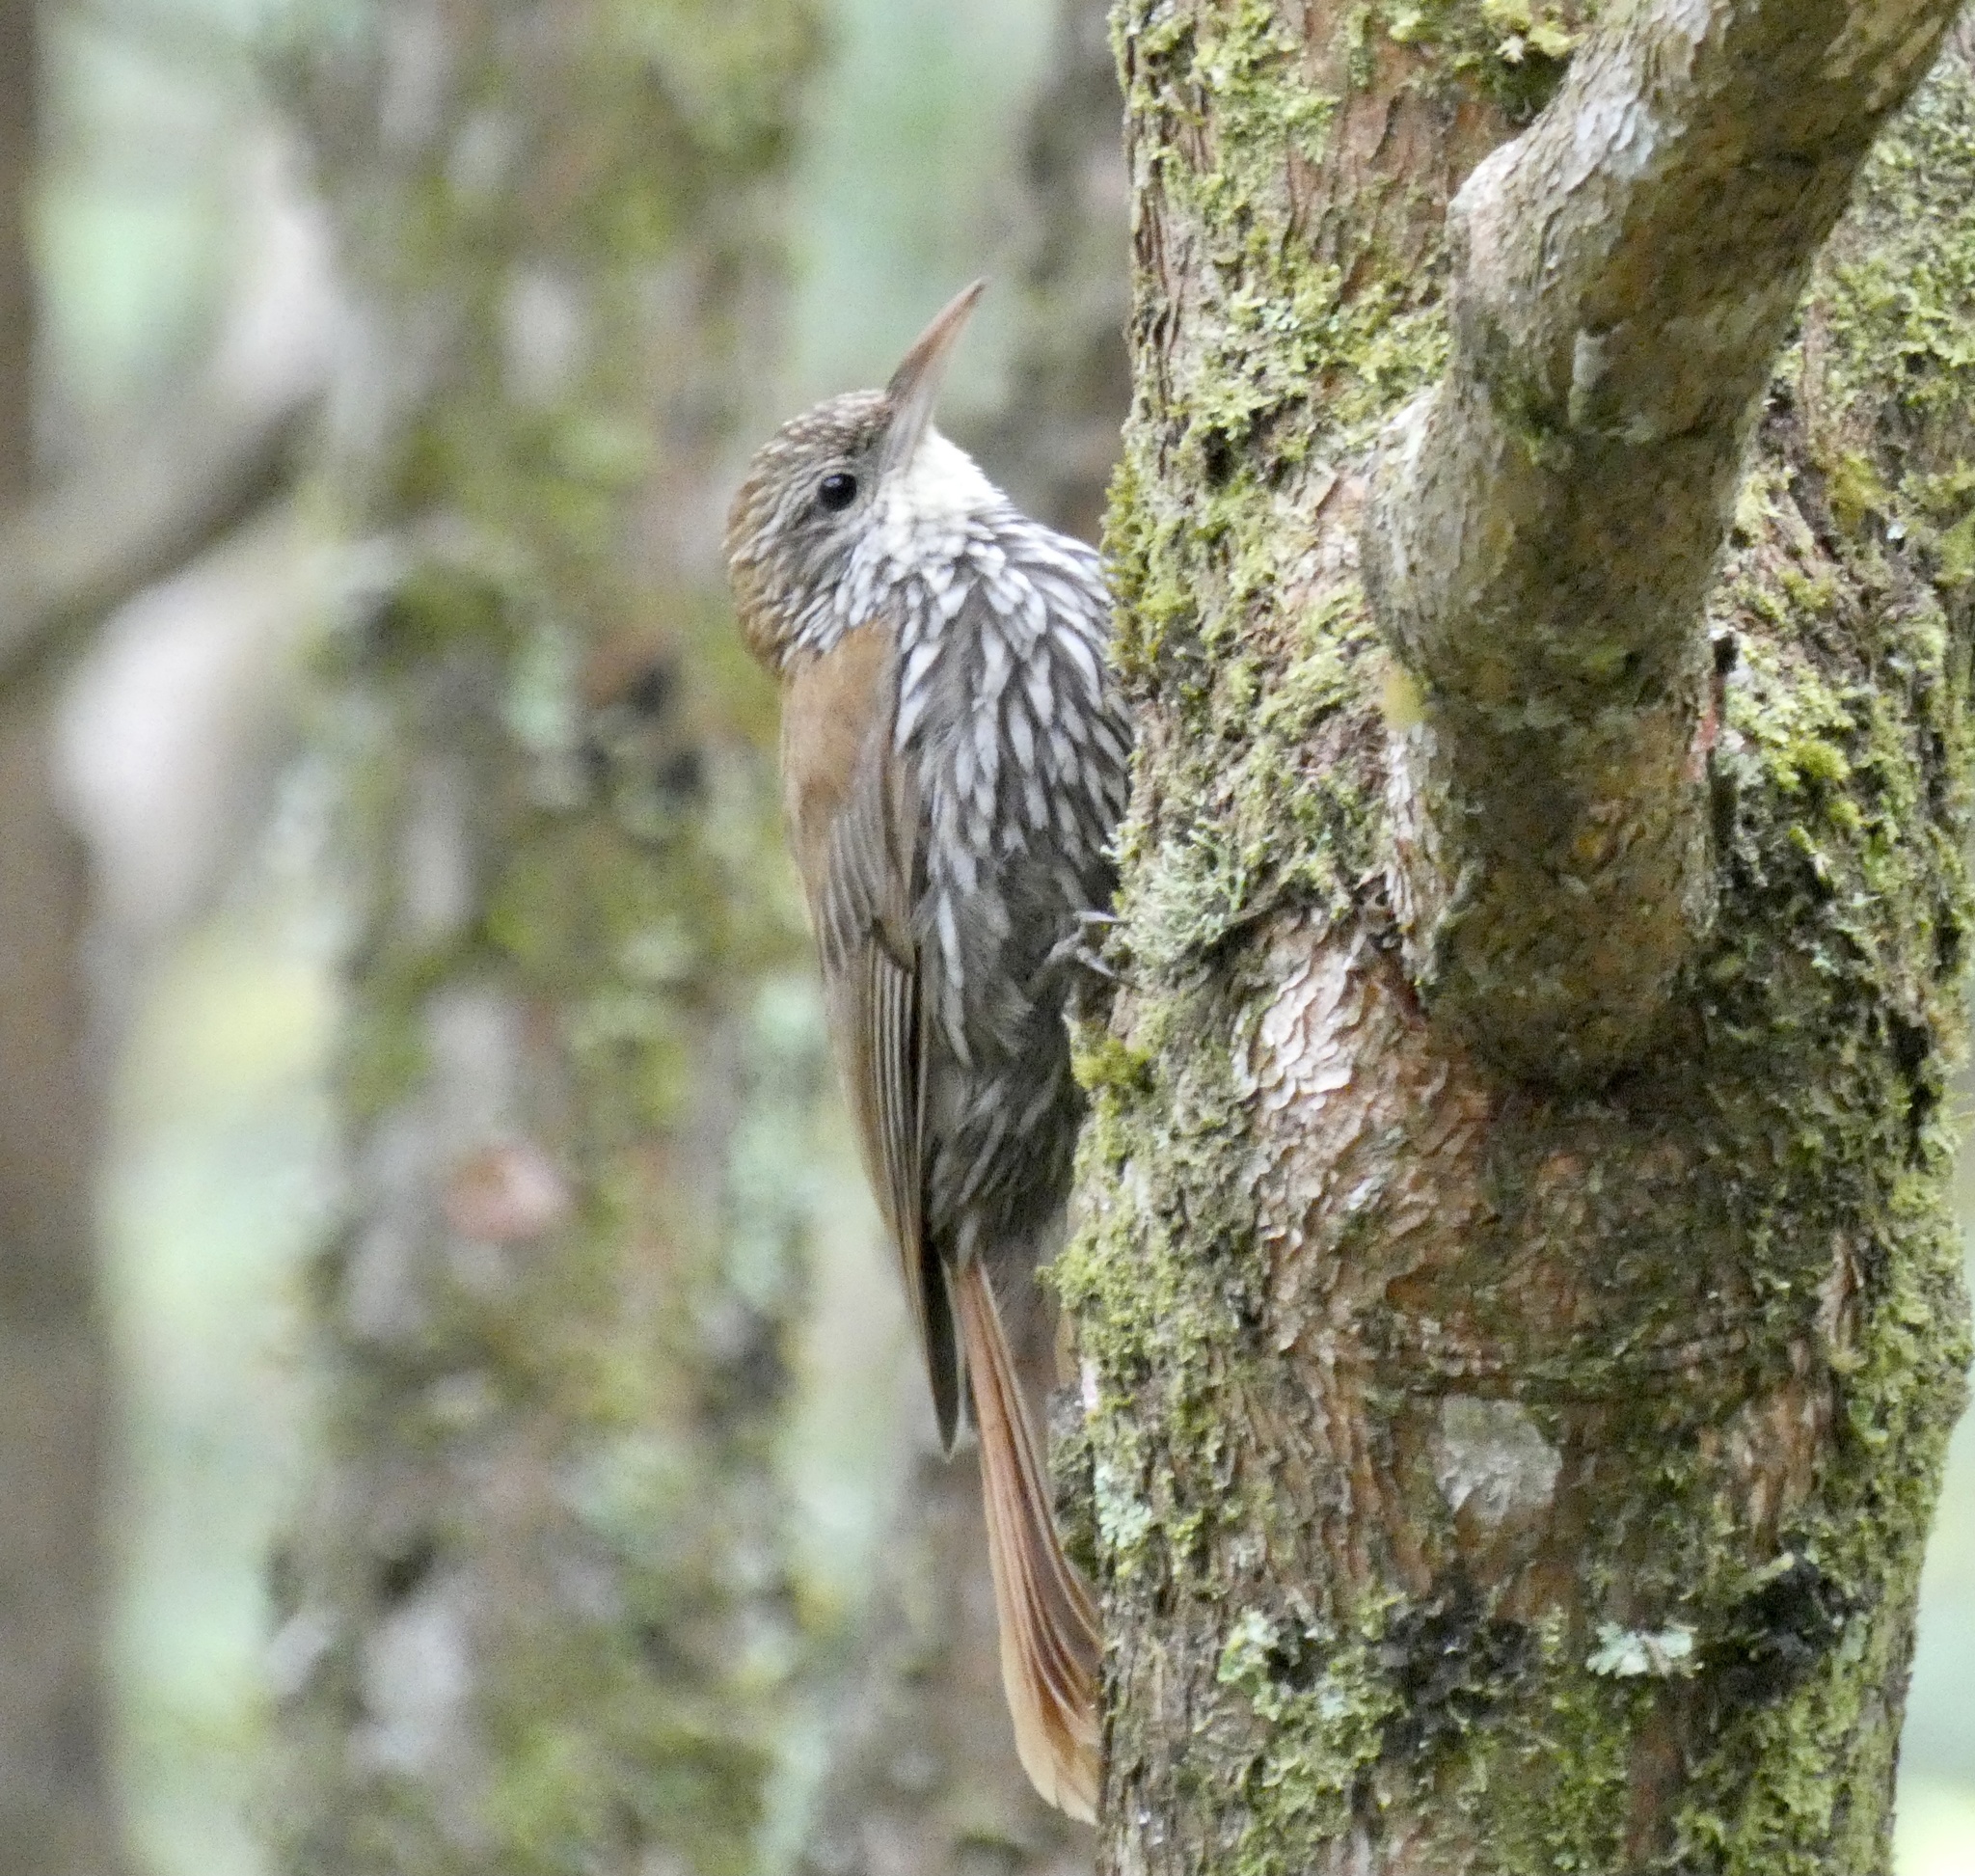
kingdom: Animalia
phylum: Chordata
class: Aves
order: Passeriformes
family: Furnariidae
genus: Lepidocolaptes
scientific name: Lepidocolaptes squamatus
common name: Scaled woodcreeper
